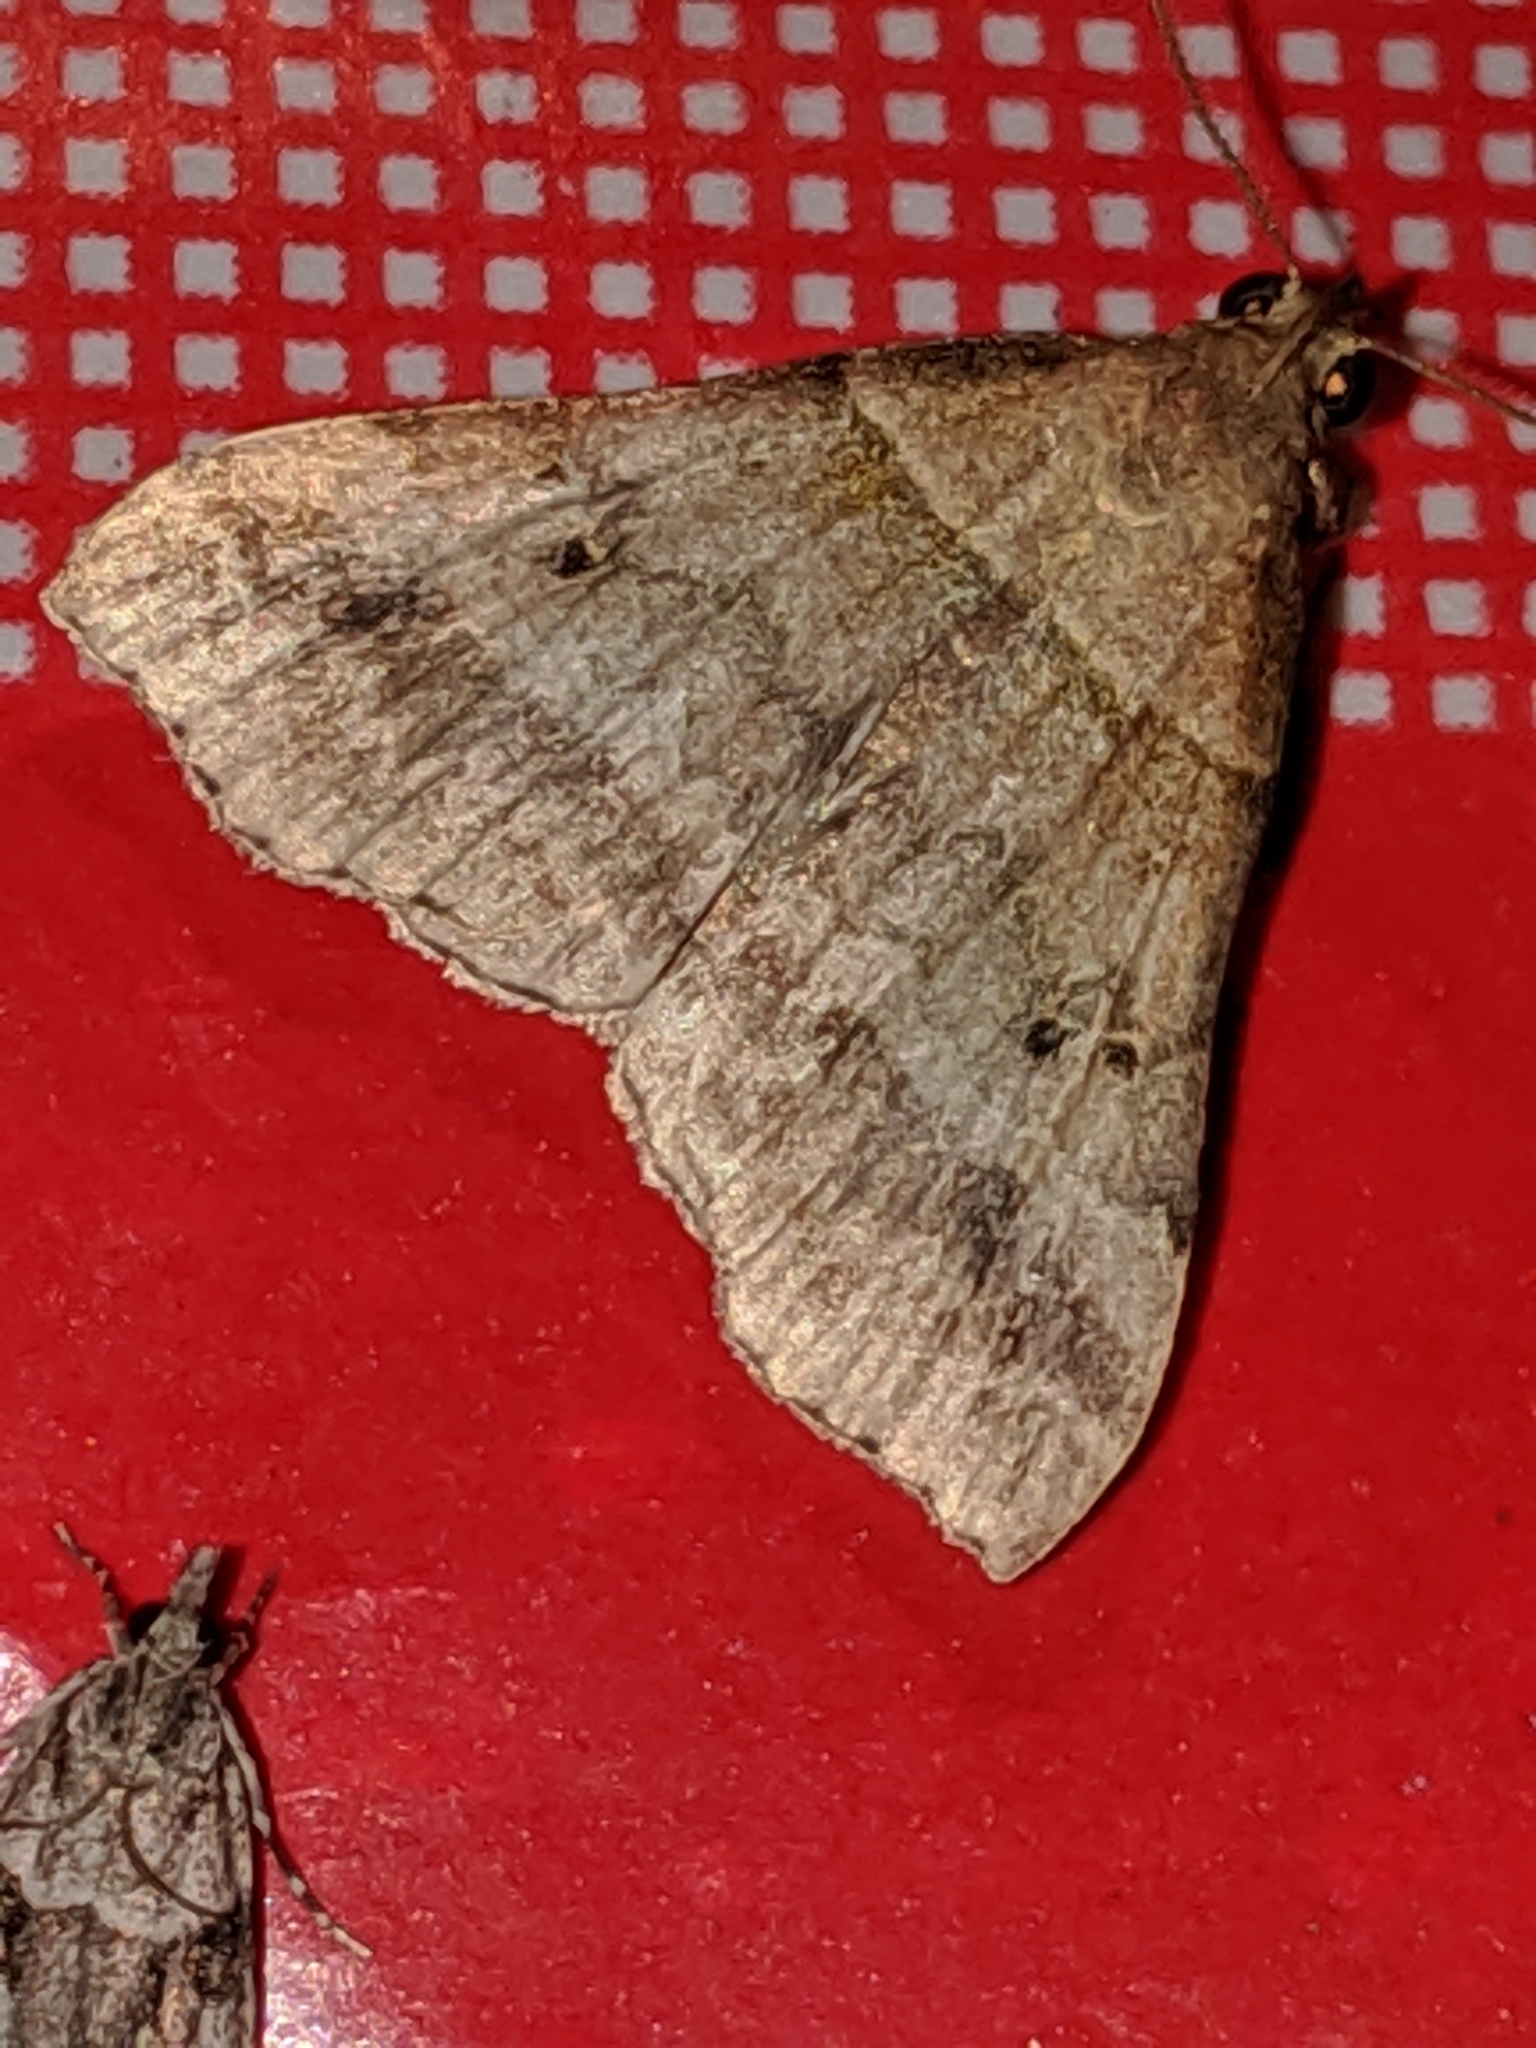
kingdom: Animalia
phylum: Arthropoda
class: Insecta
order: Lepidoptera
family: Erebidae
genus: Phaeolita
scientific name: Phaeolita pyramusalis
